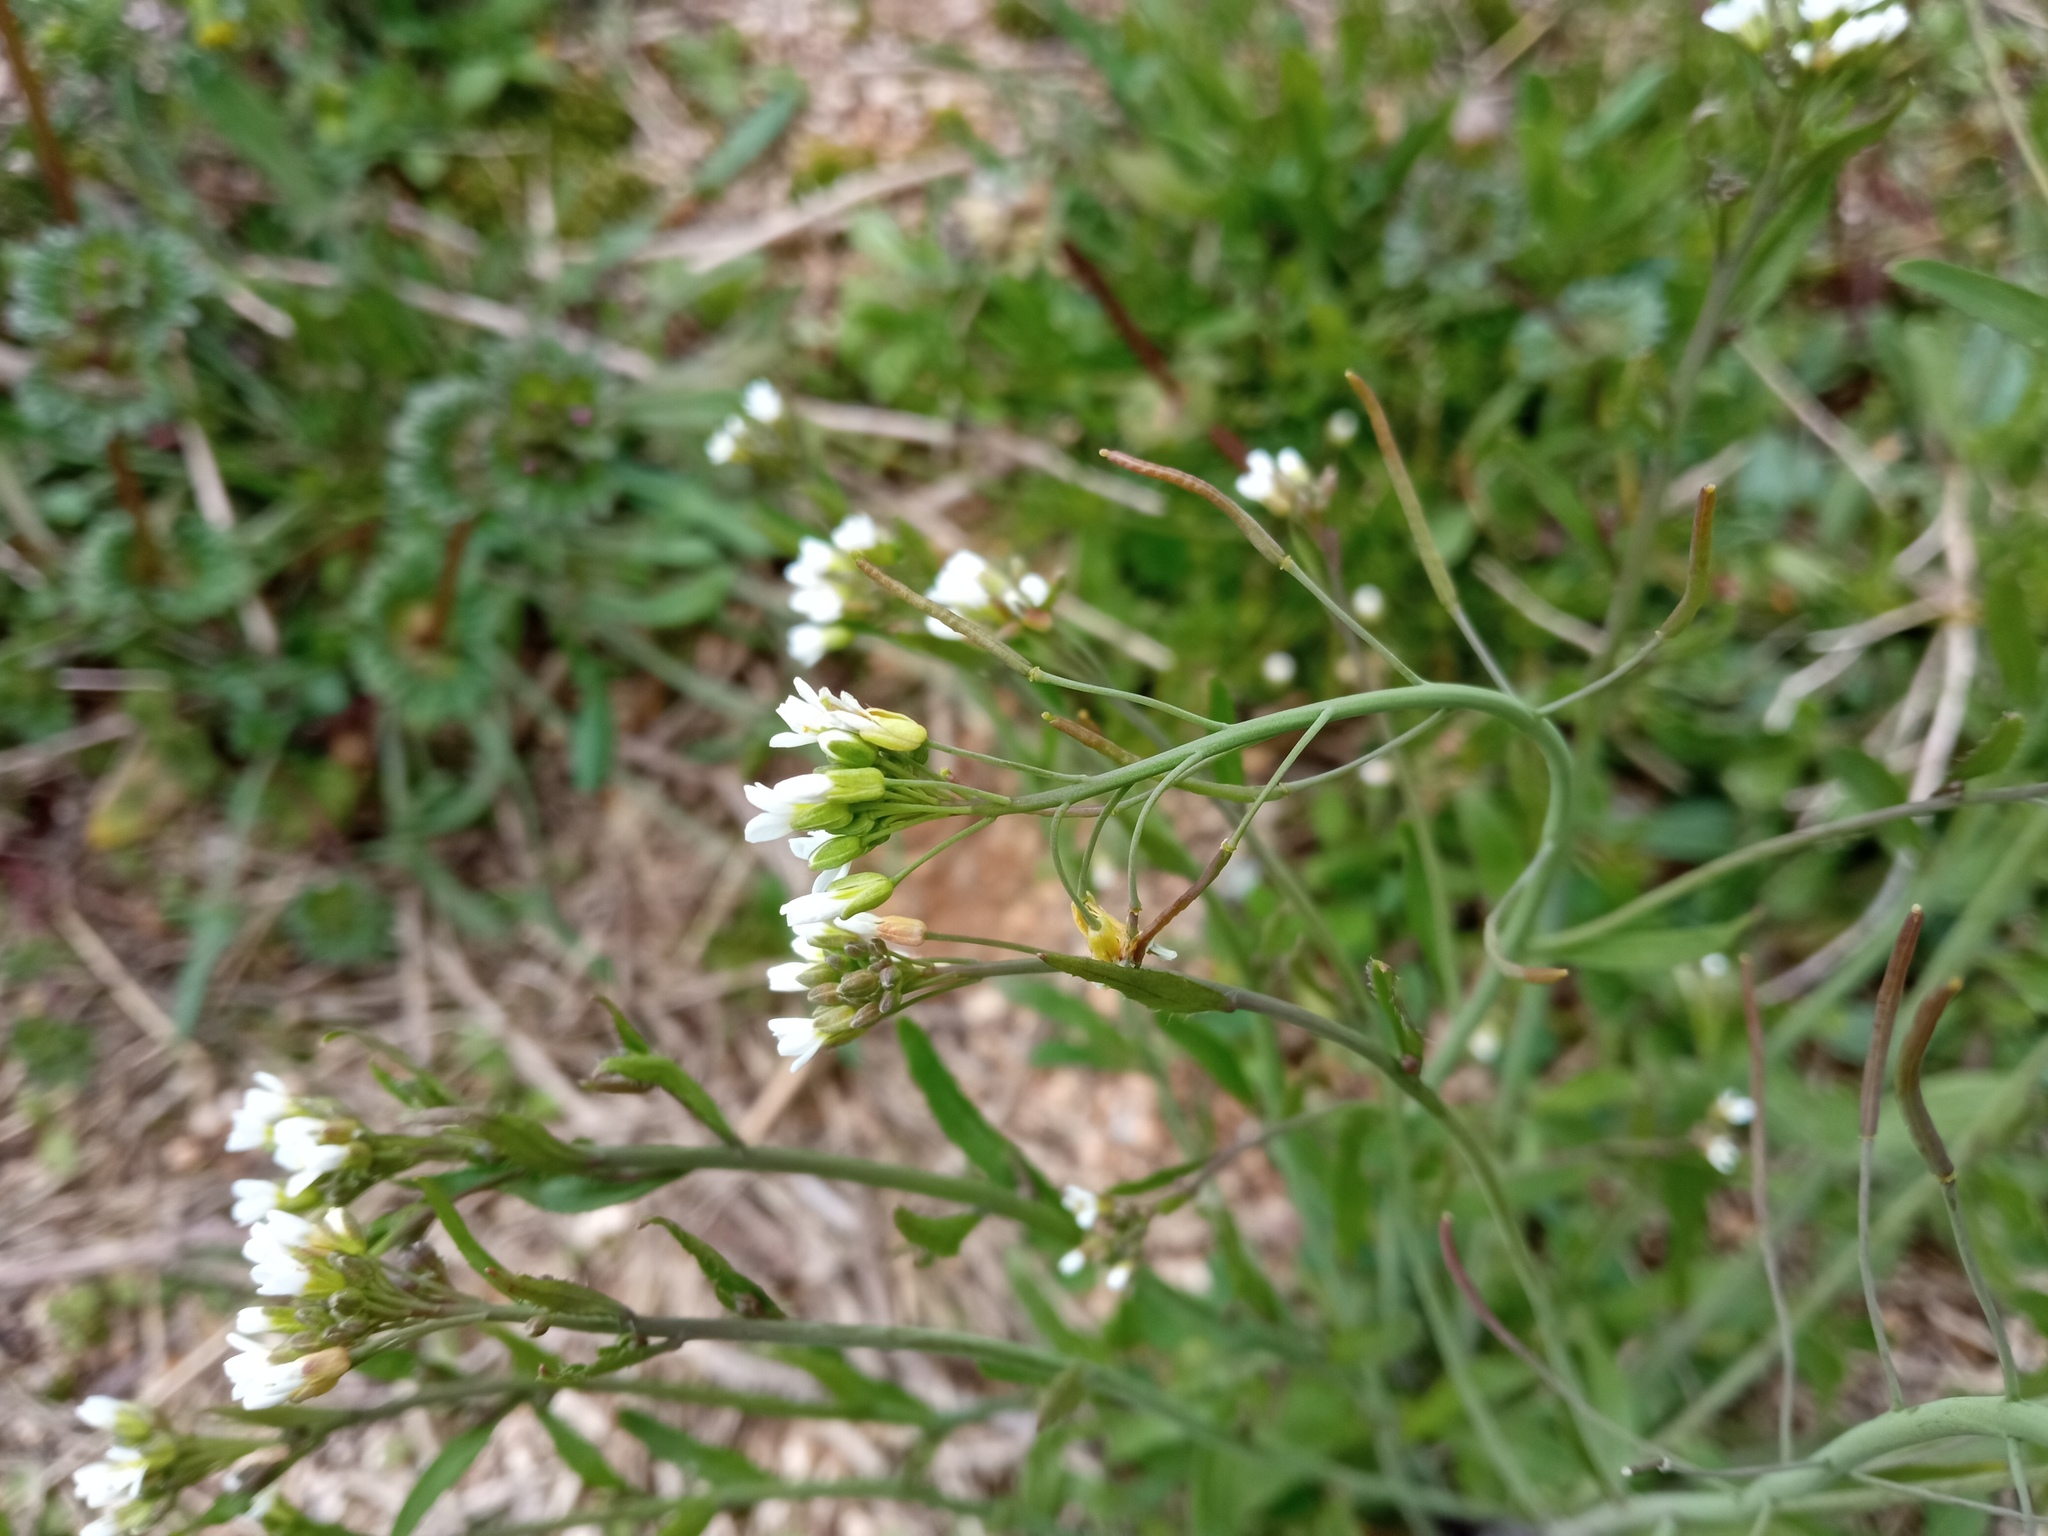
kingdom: Plantae
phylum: Tracheophyta
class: Magnoliopsida
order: Brassicales
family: Brassicaceae
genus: Arabidopsis
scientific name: Arabidopsis thaliana
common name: Thale cress
